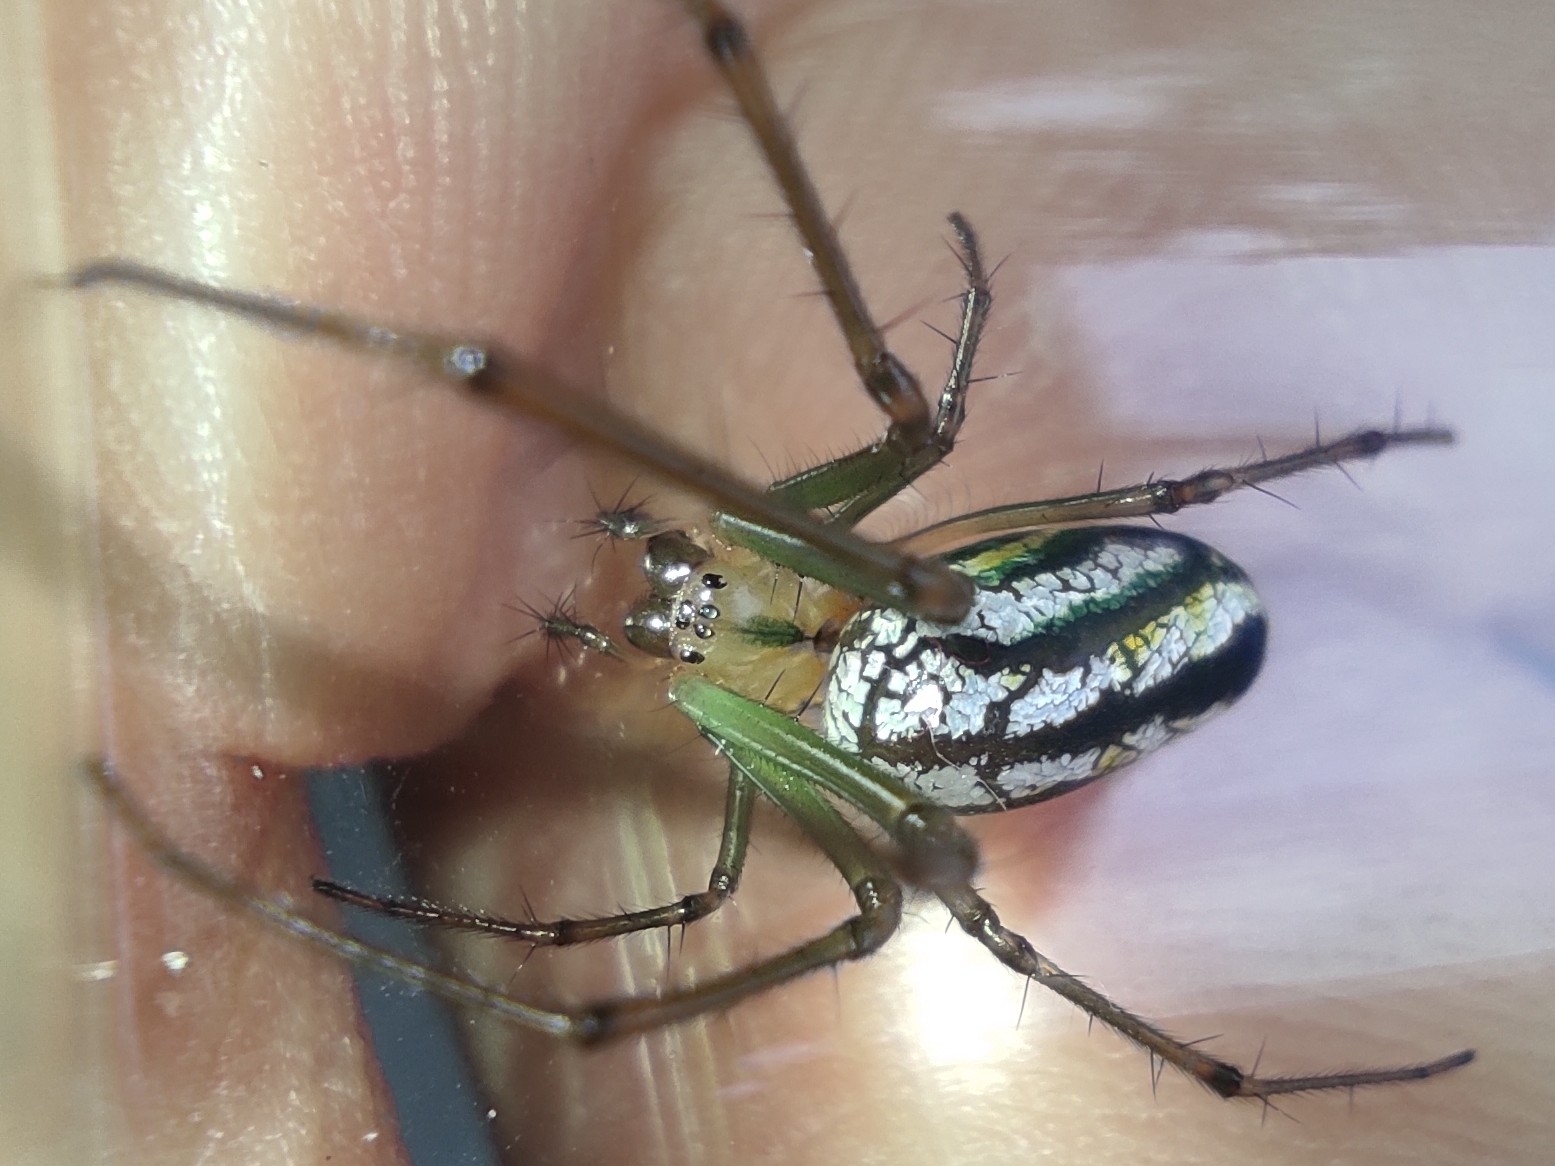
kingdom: Animalia
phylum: Arthropoda
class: Arachnida
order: Araneae
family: Tetragnathidae
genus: Leucauge
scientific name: Leucauge mariana
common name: Longjawed orb weavers
